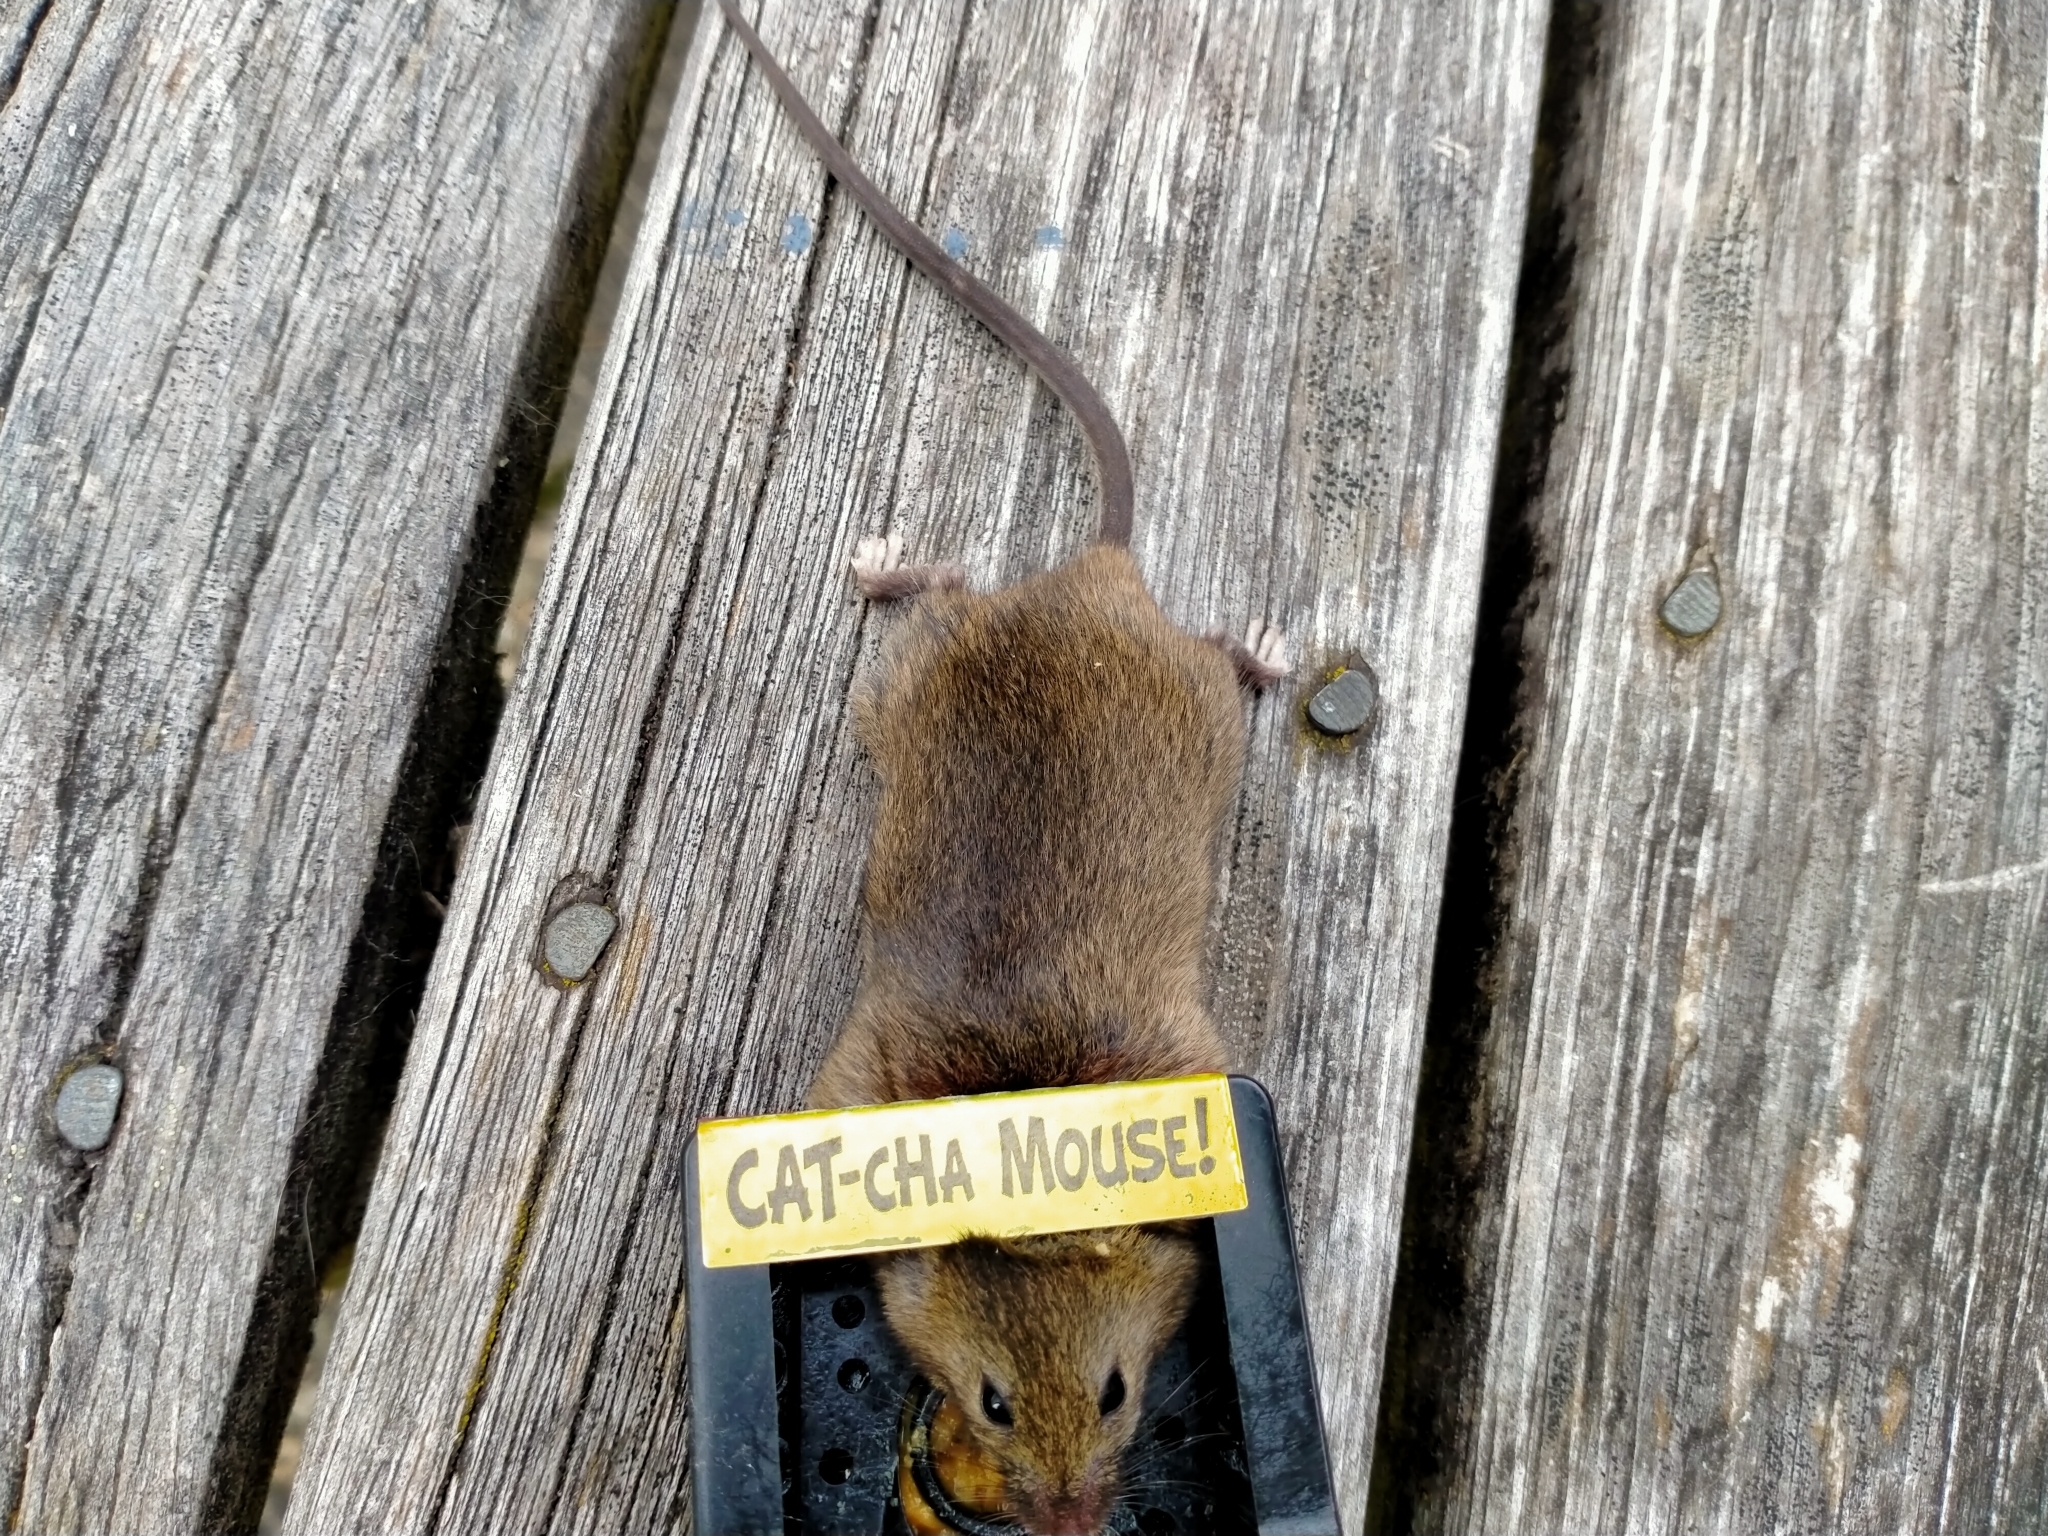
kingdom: Animalia
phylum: Chordata
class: Mammalia
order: Rodentia
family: Muridae
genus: Mus
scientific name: Mus musculus
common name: House mouse
